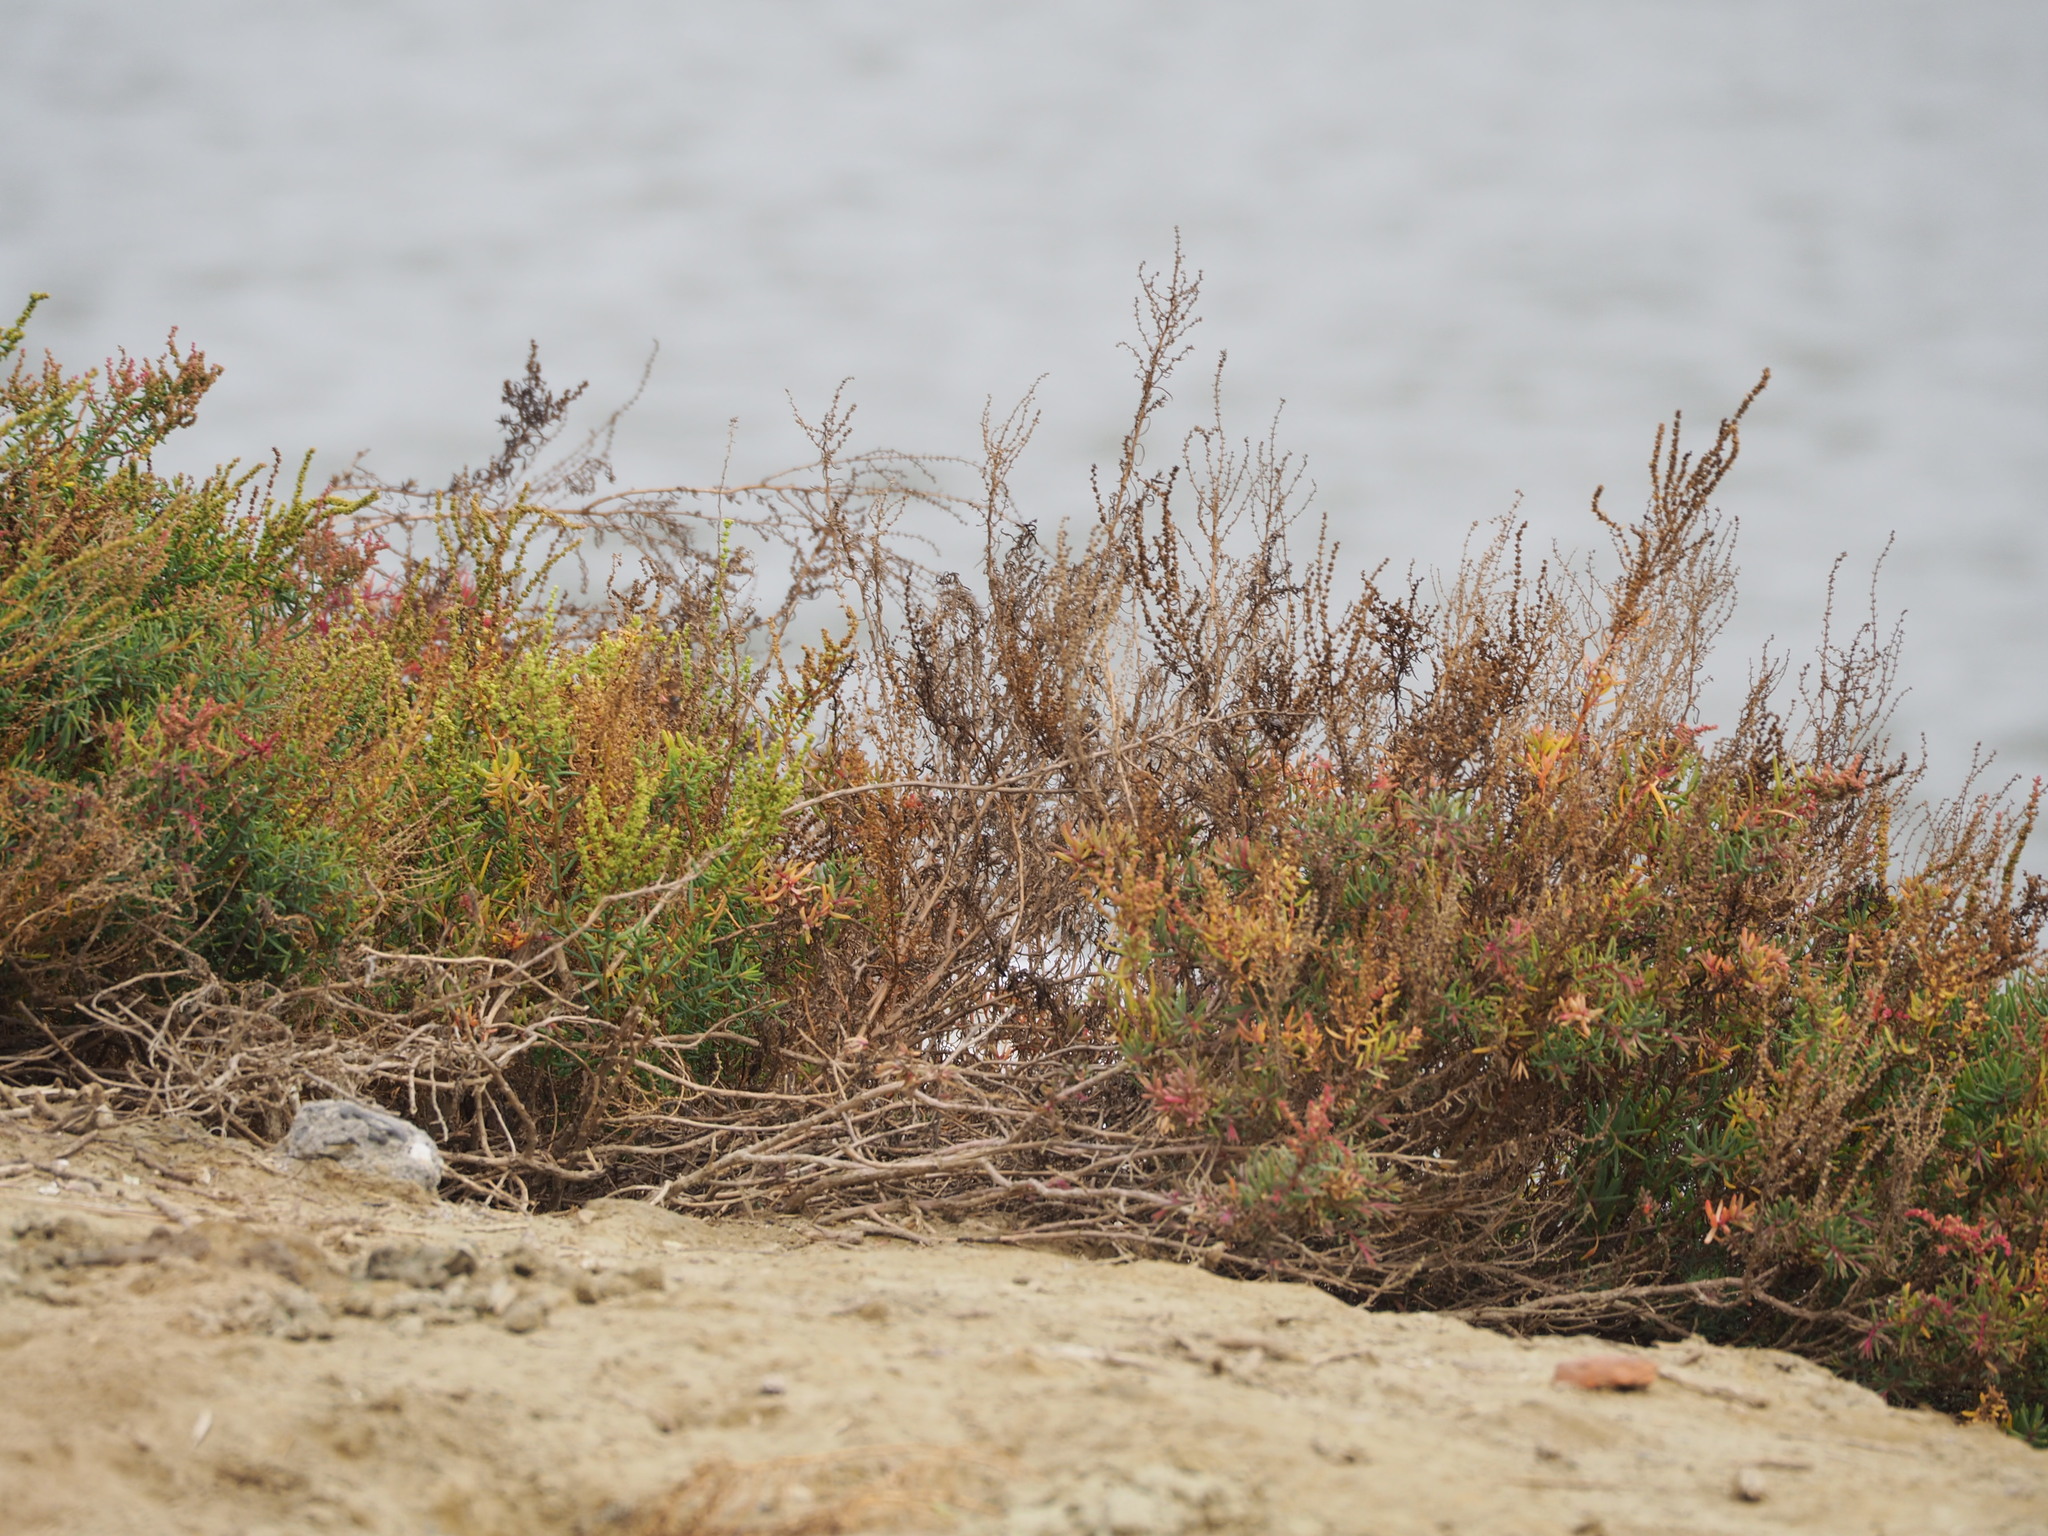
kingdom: Plantae
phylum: Tracheophyta
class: Magnoliopsida
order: Caryophyllales
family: Amaranthaceae
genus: Suaeda
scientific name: Suaeda maritima
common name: Annual sea-blite
